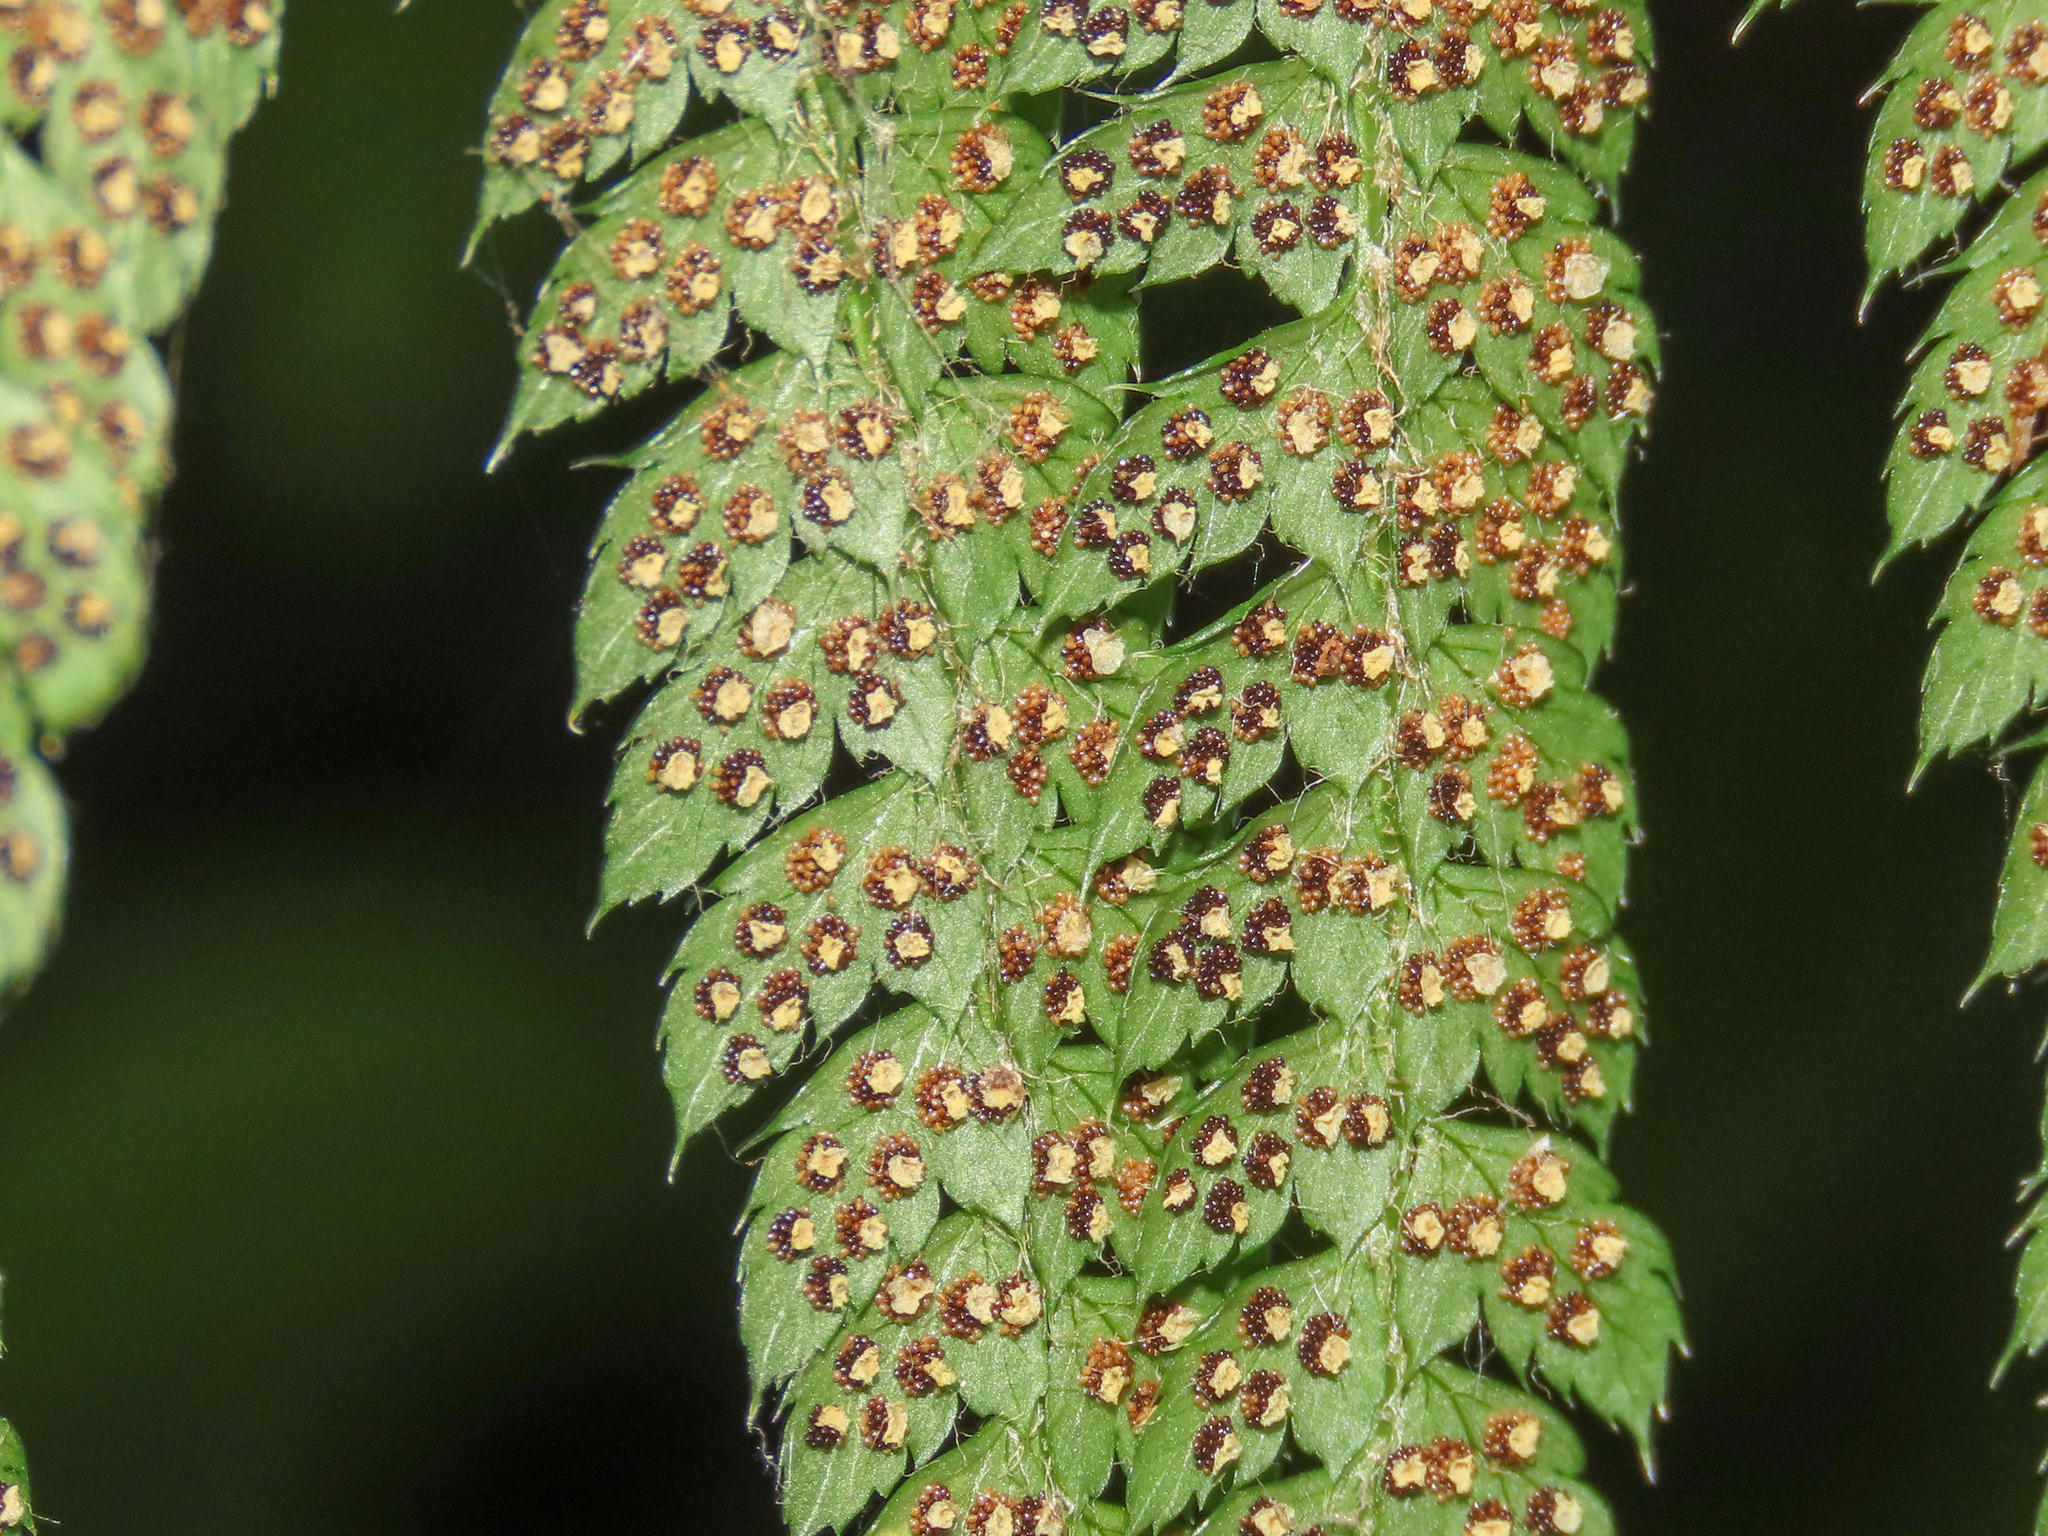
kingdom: Plantae
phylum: Tracheophyta
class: Polypodiopsida
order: Polypodiales
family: Dryopteridaceae
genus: Polystichum
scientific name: Polystichum setiferum
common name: Soft shield-fern
